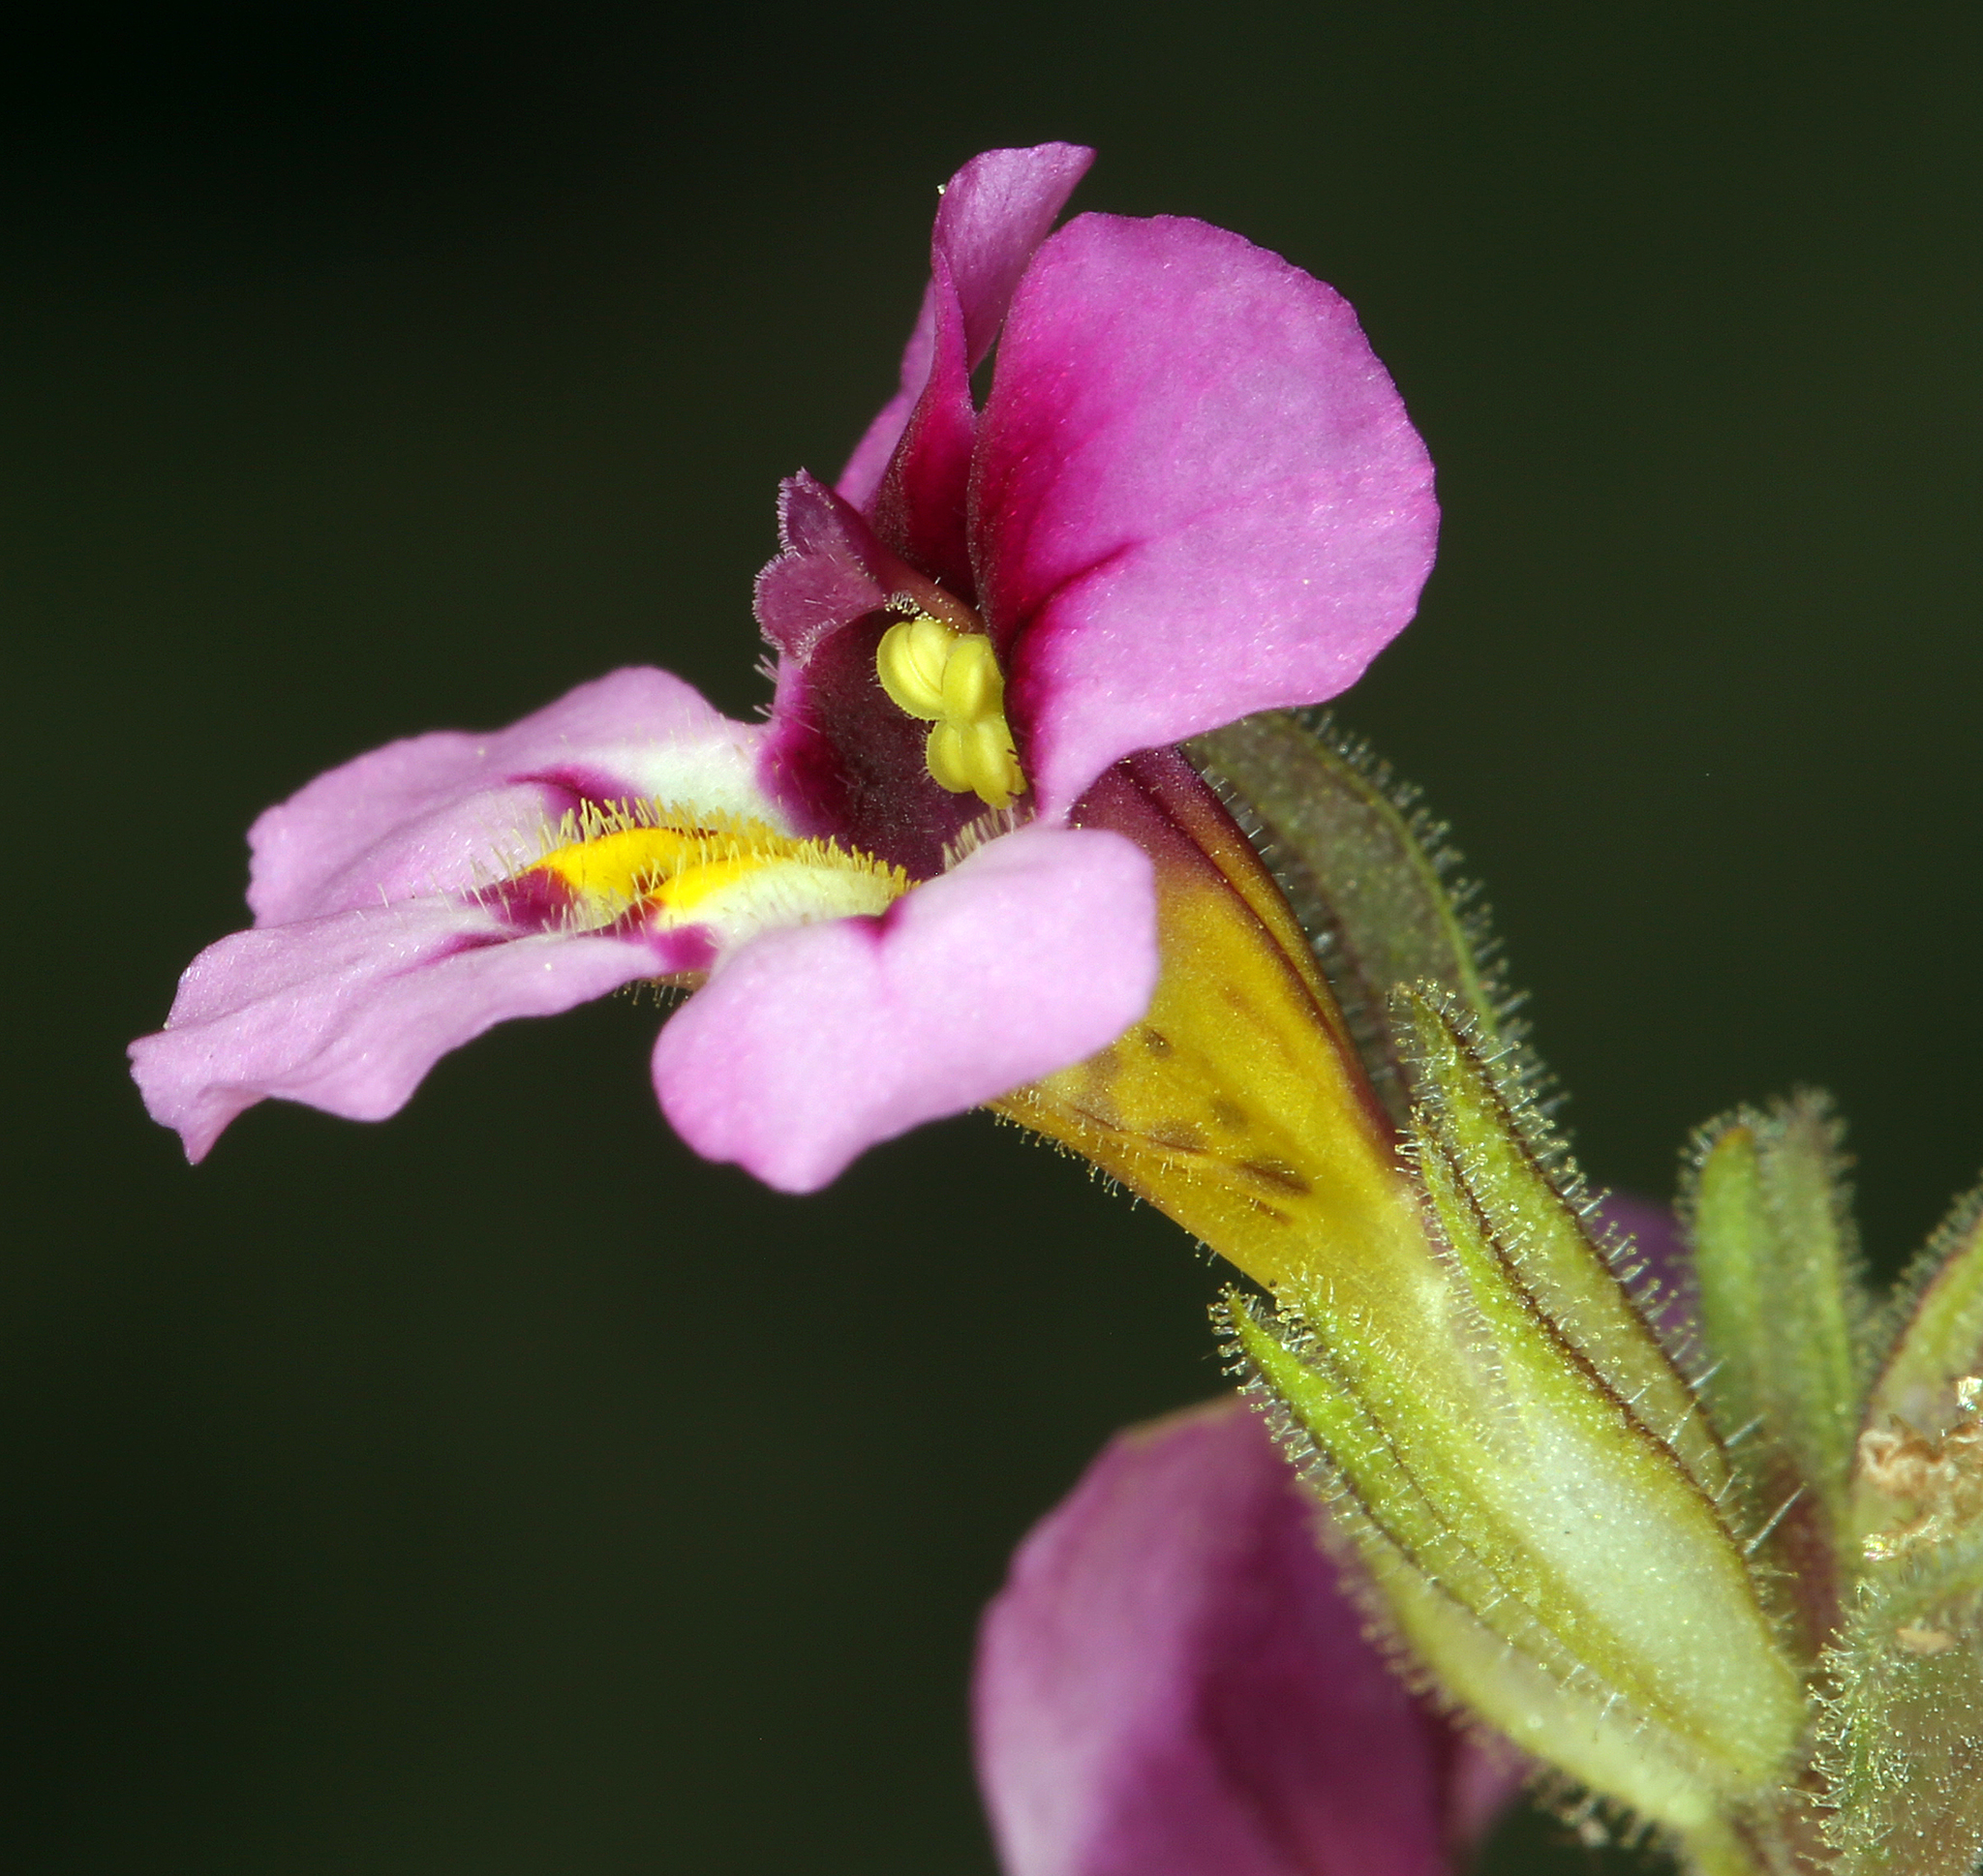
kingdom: Plantae
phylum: Tracheophyta
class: Magnoliopsida
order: Lamiales
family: Phrymaceae
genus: Diplacus
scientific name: Diplacus mephiticus
